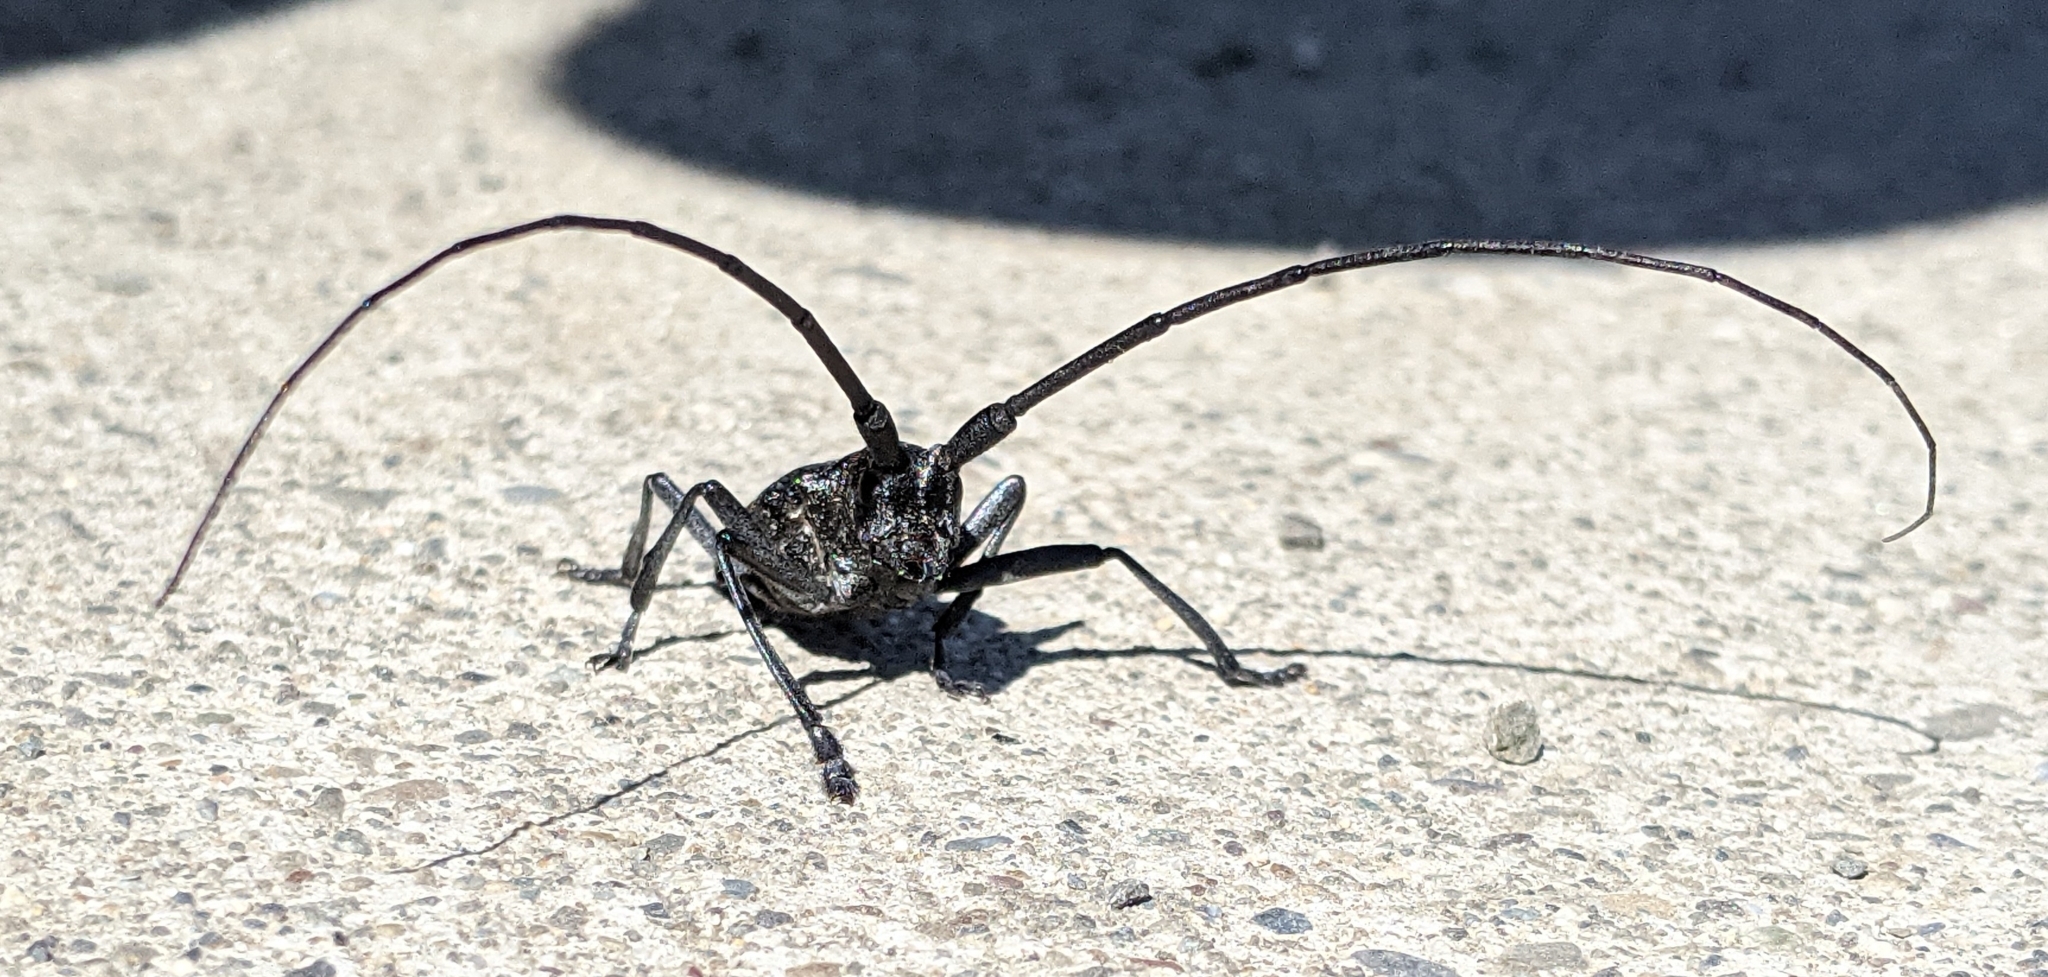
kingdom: Animalia
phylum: Arthropoda
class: Insecta
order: Coleoptera
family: Cerambycidae
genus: Monochamus
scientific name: Monochamus scutellatus
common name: White-spotted sawyer beetle
